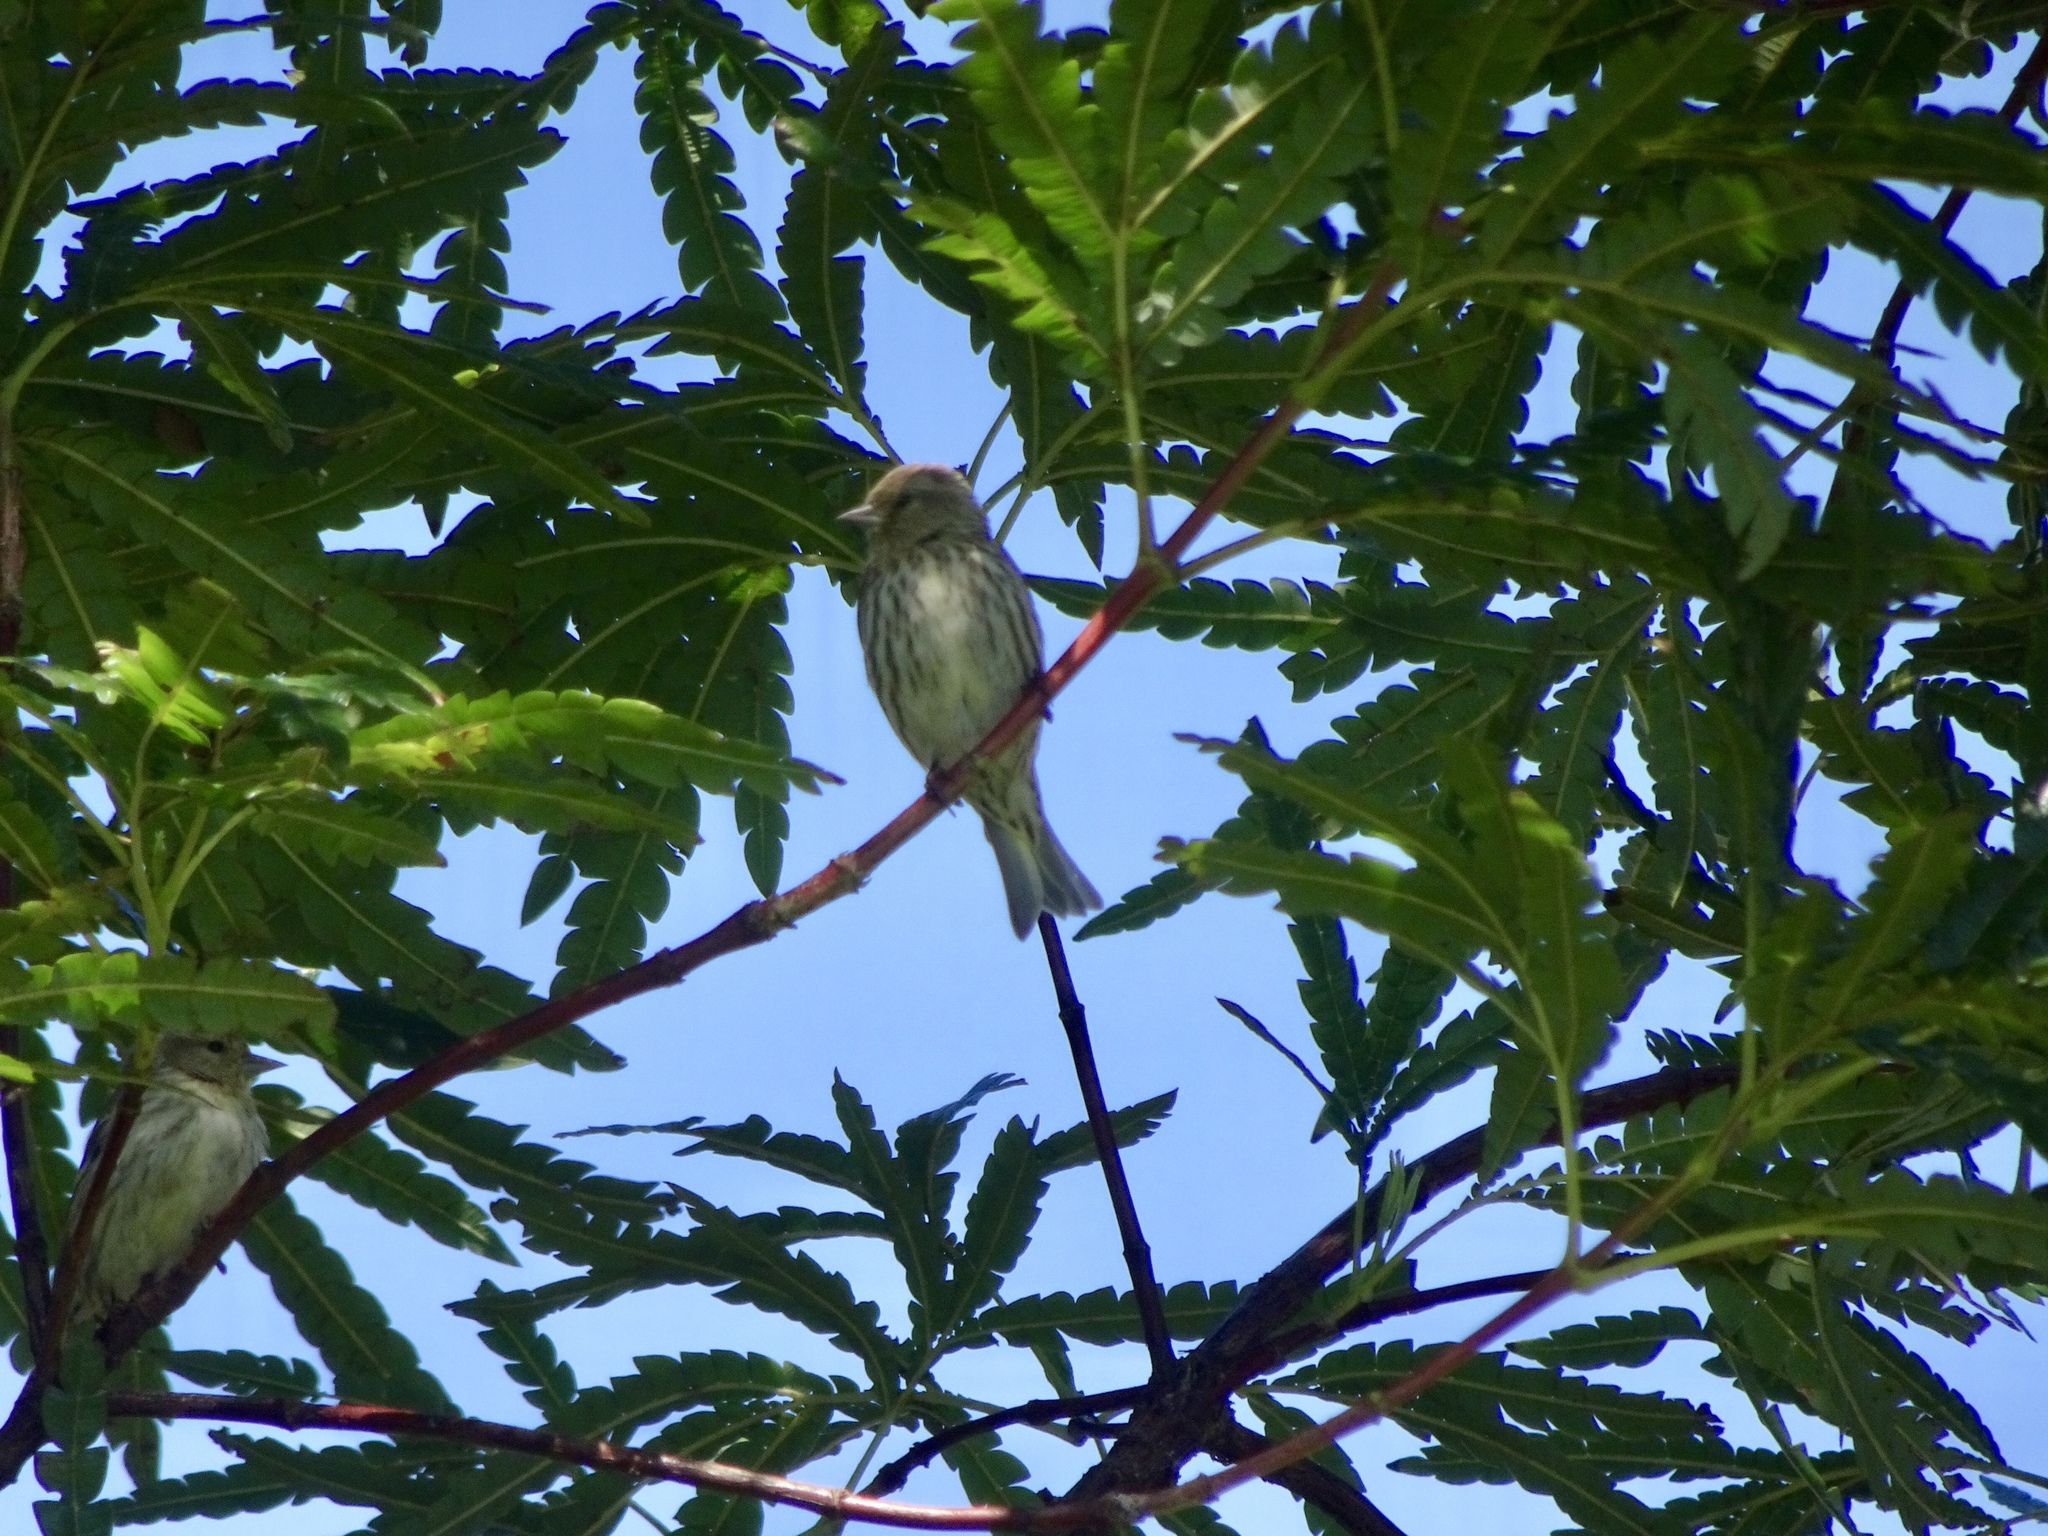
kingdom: Animalia
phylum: Chordata
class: Aves
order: Passeriformes
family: Fringillidae
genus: Spinus
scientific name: Spinus pinus
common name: Pine siskin
